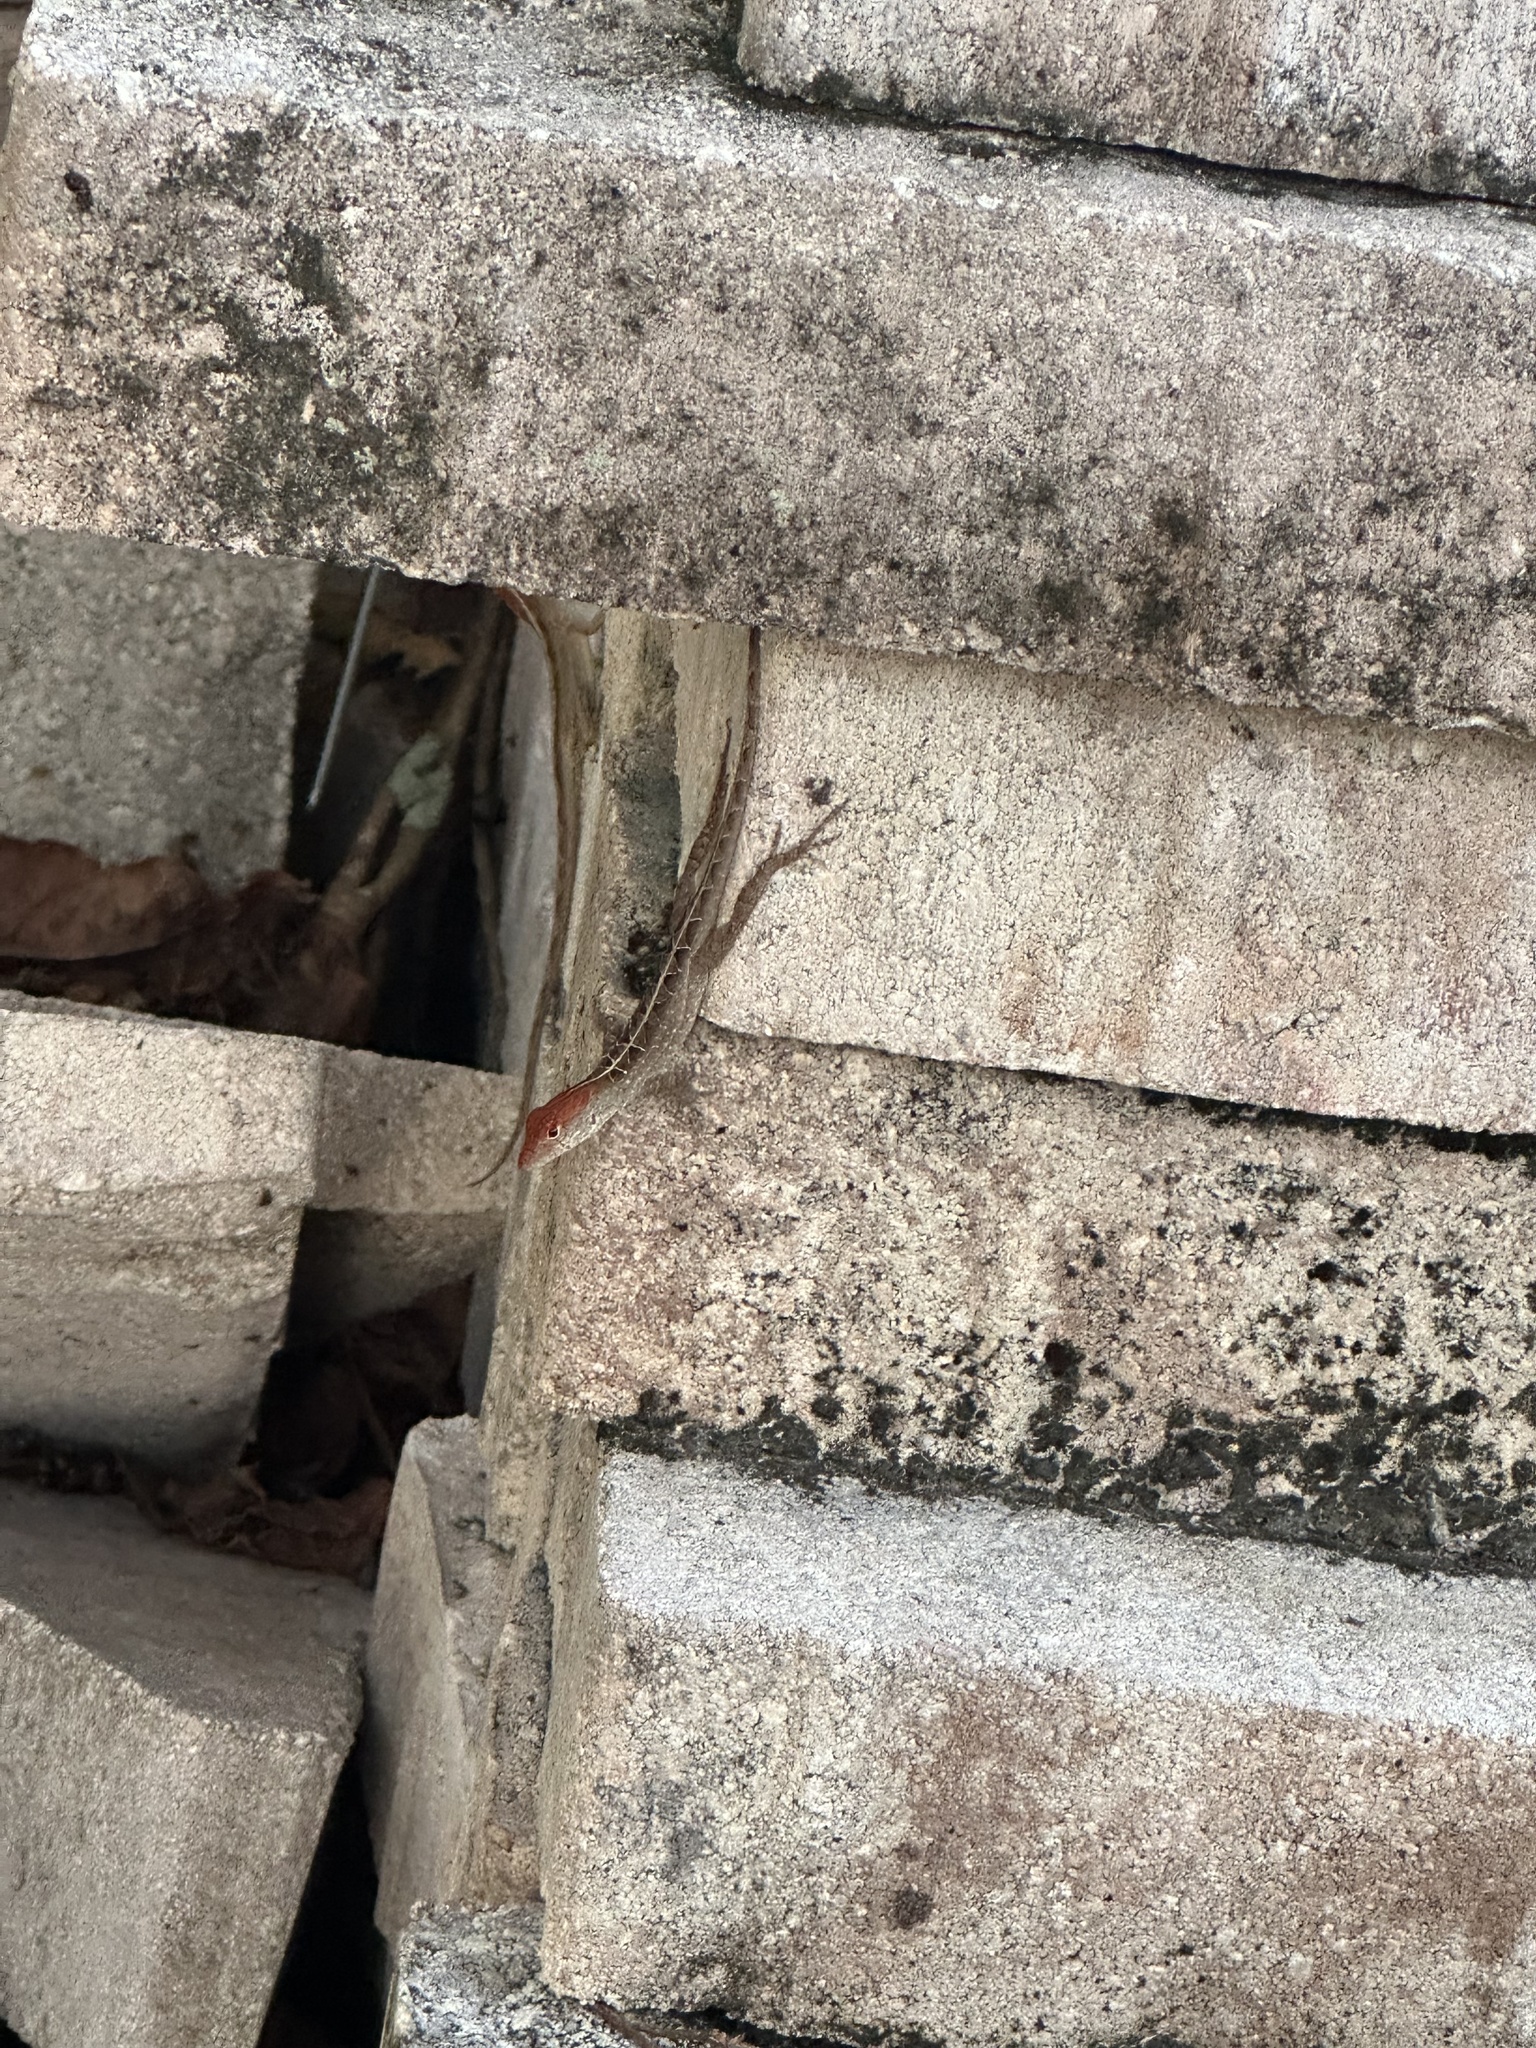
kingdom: Animalia
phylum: Chordata
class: Squamata
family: Dactyloidae
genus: Anolis
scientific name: Anolis sagrei
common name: Brown anole
